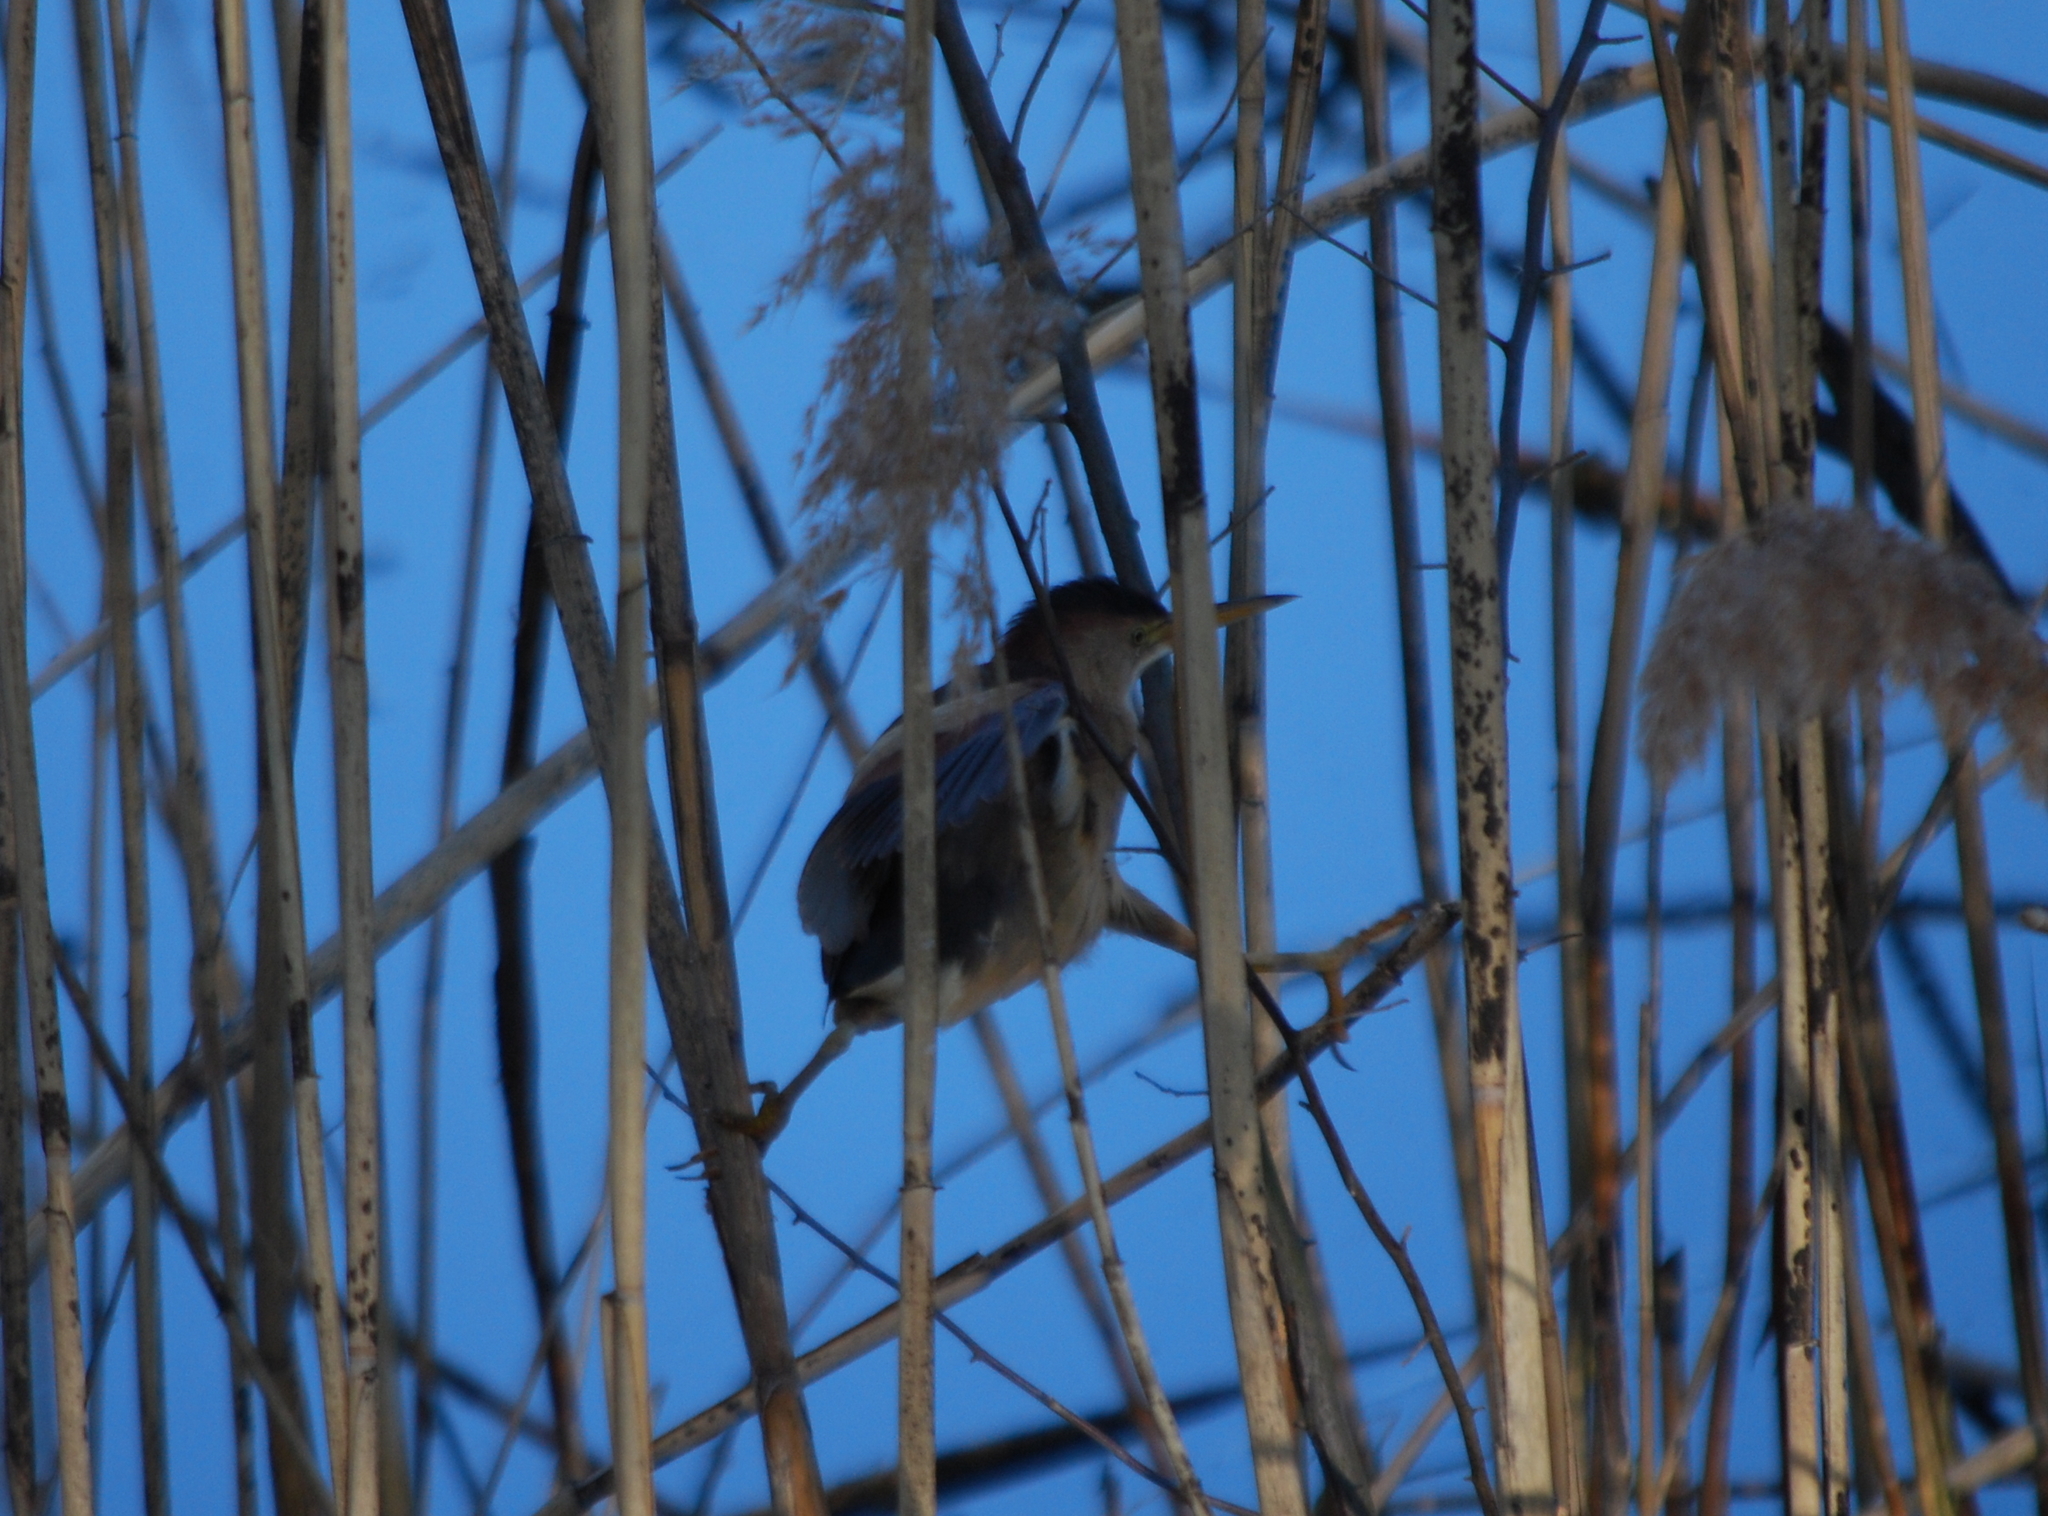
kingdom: Animalia
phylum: Chordata
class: Aves
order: Pelecaniformes
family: Ardeidae
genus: Ixobrychus
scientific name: Ixobrychus exilis
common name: Least bittern
